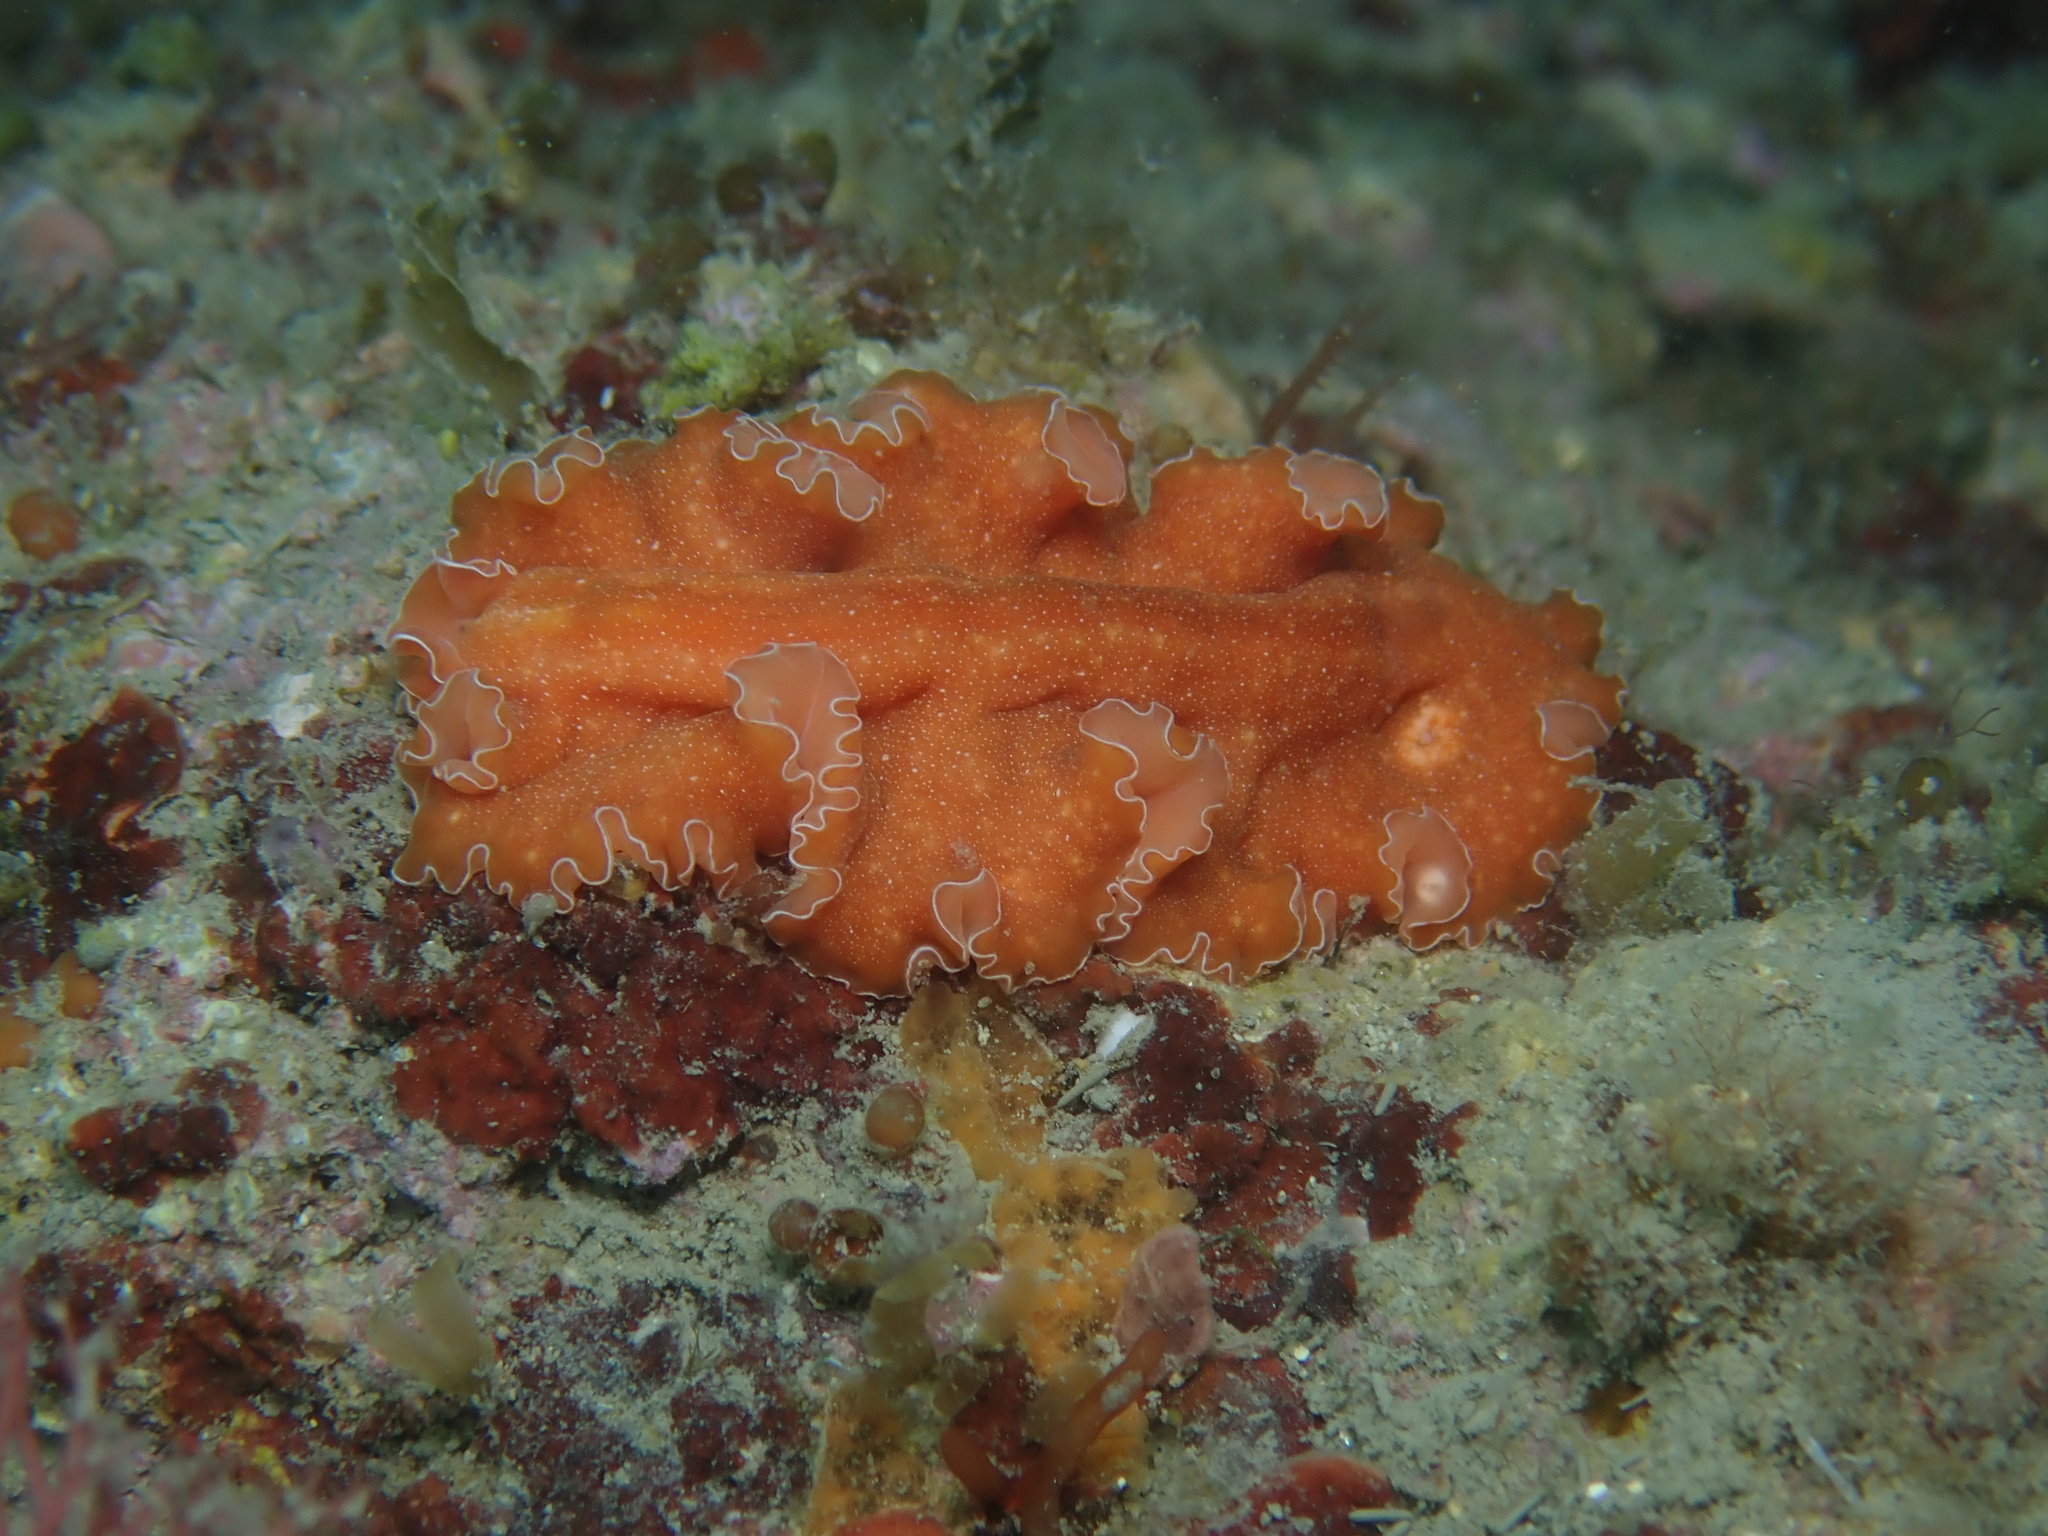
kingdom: Animalia
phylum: Platyhelminthes
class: Turbellaria
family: Pseudocerotidae
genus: Yungia
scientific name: Yungia aurantiaca
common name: Mediterranean orange polyclad worm
